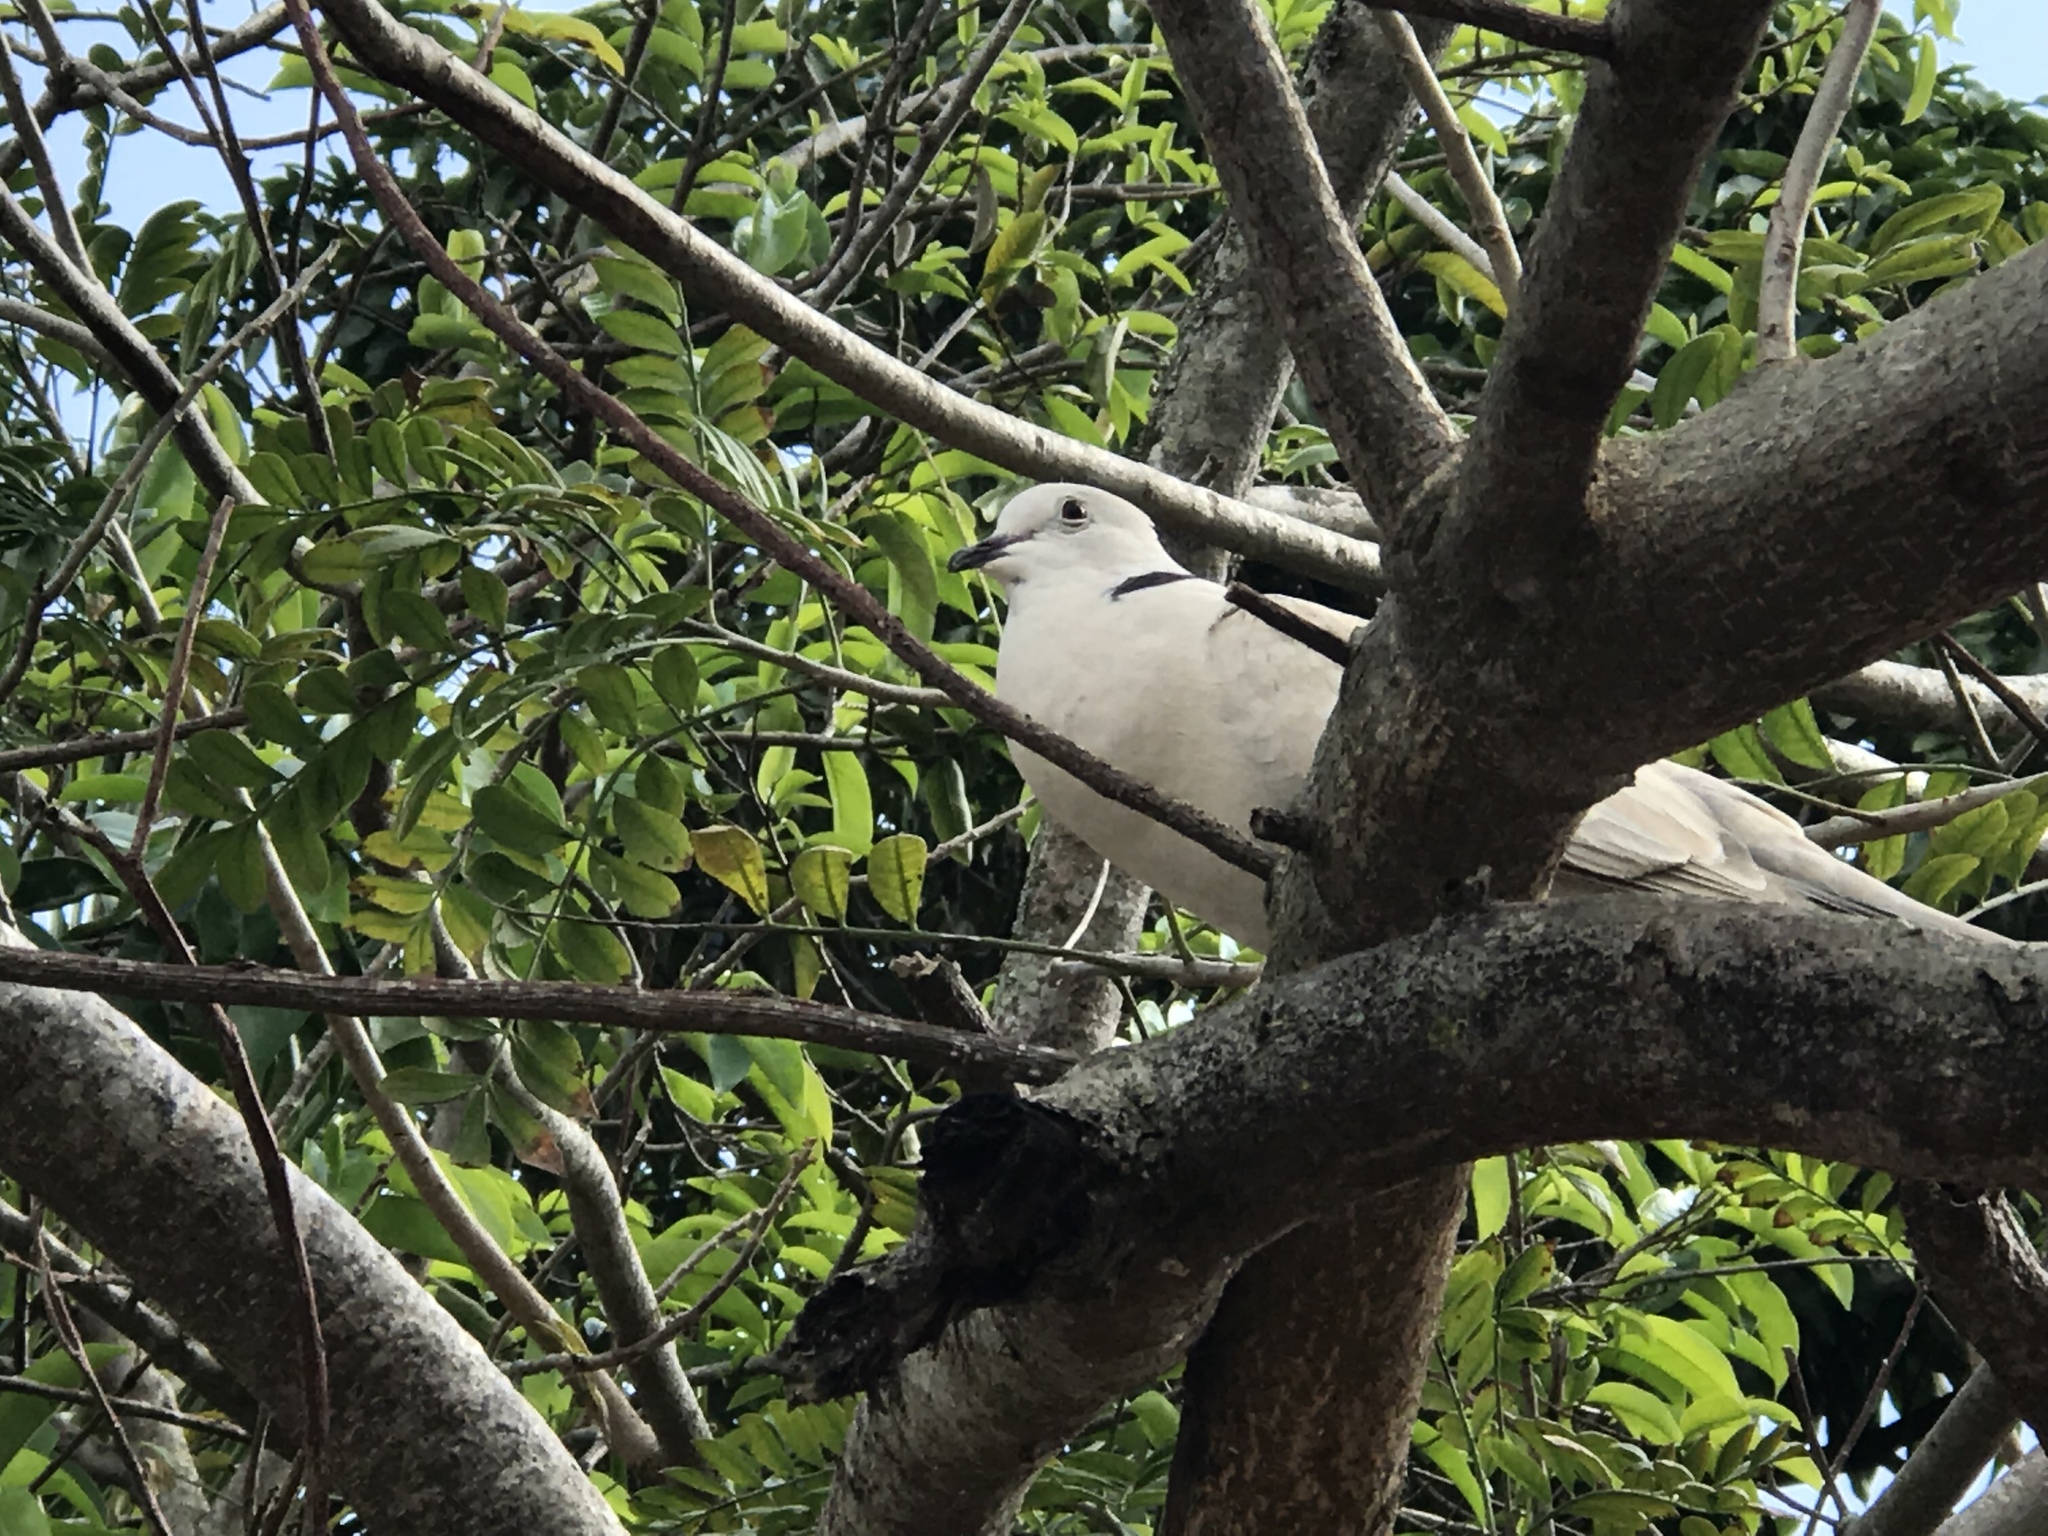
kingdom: Animalia
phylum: Chordata
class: Aves
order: Columbiformes
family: Columbidae
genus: Streptopelia
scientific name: Streptopelia decaocto
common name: Eurasian collared dove
